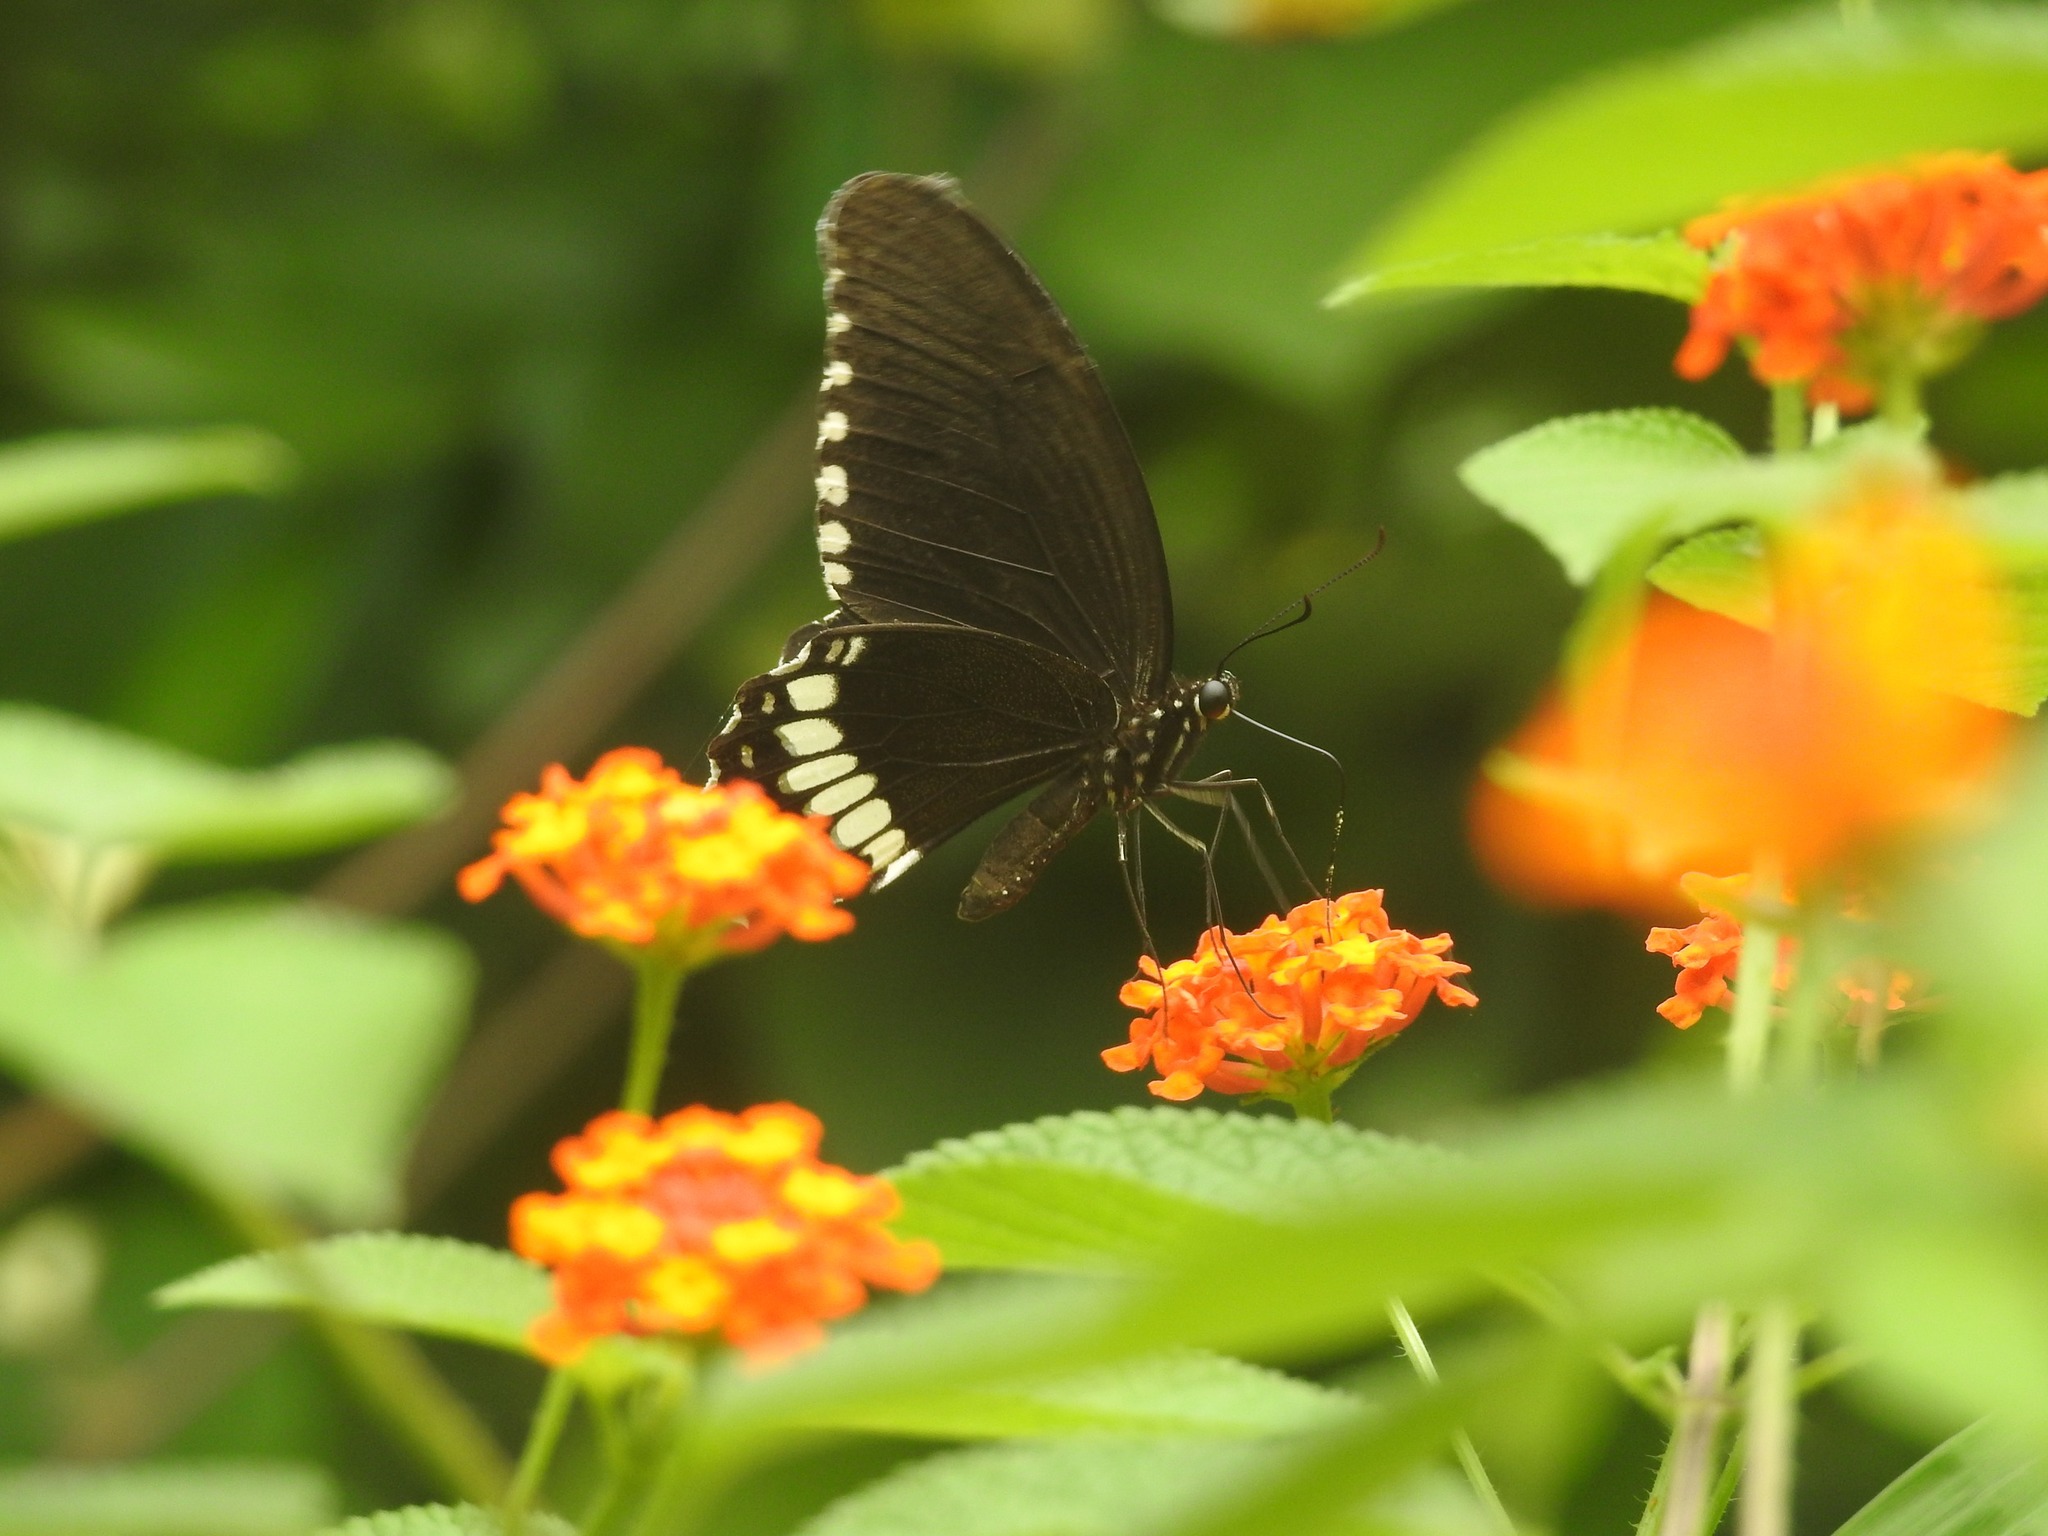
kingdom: Animalia
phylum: Arthropoda
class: Insecta
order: Lepidoptera
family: Papilionidae
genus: Papilio
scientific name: Papilio polytes
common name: Common mormon
